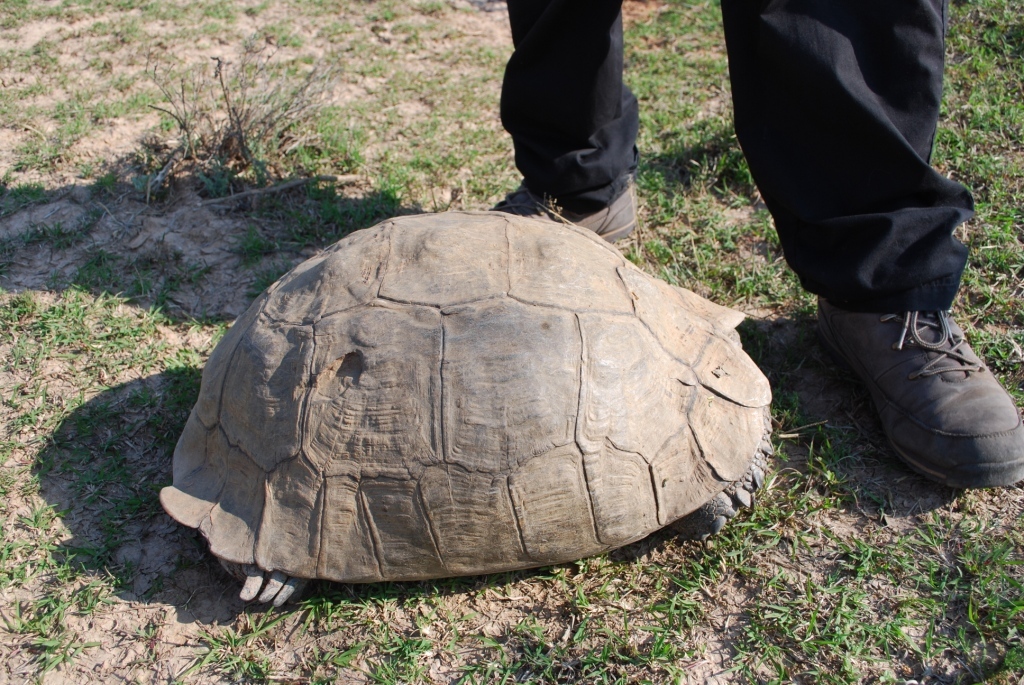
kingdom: Animalia
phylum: Chordata
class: Testudines
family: Testudinidae
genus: Stigmochelys
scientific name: Stigmochelys pardalis
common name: Leopard tortoise
